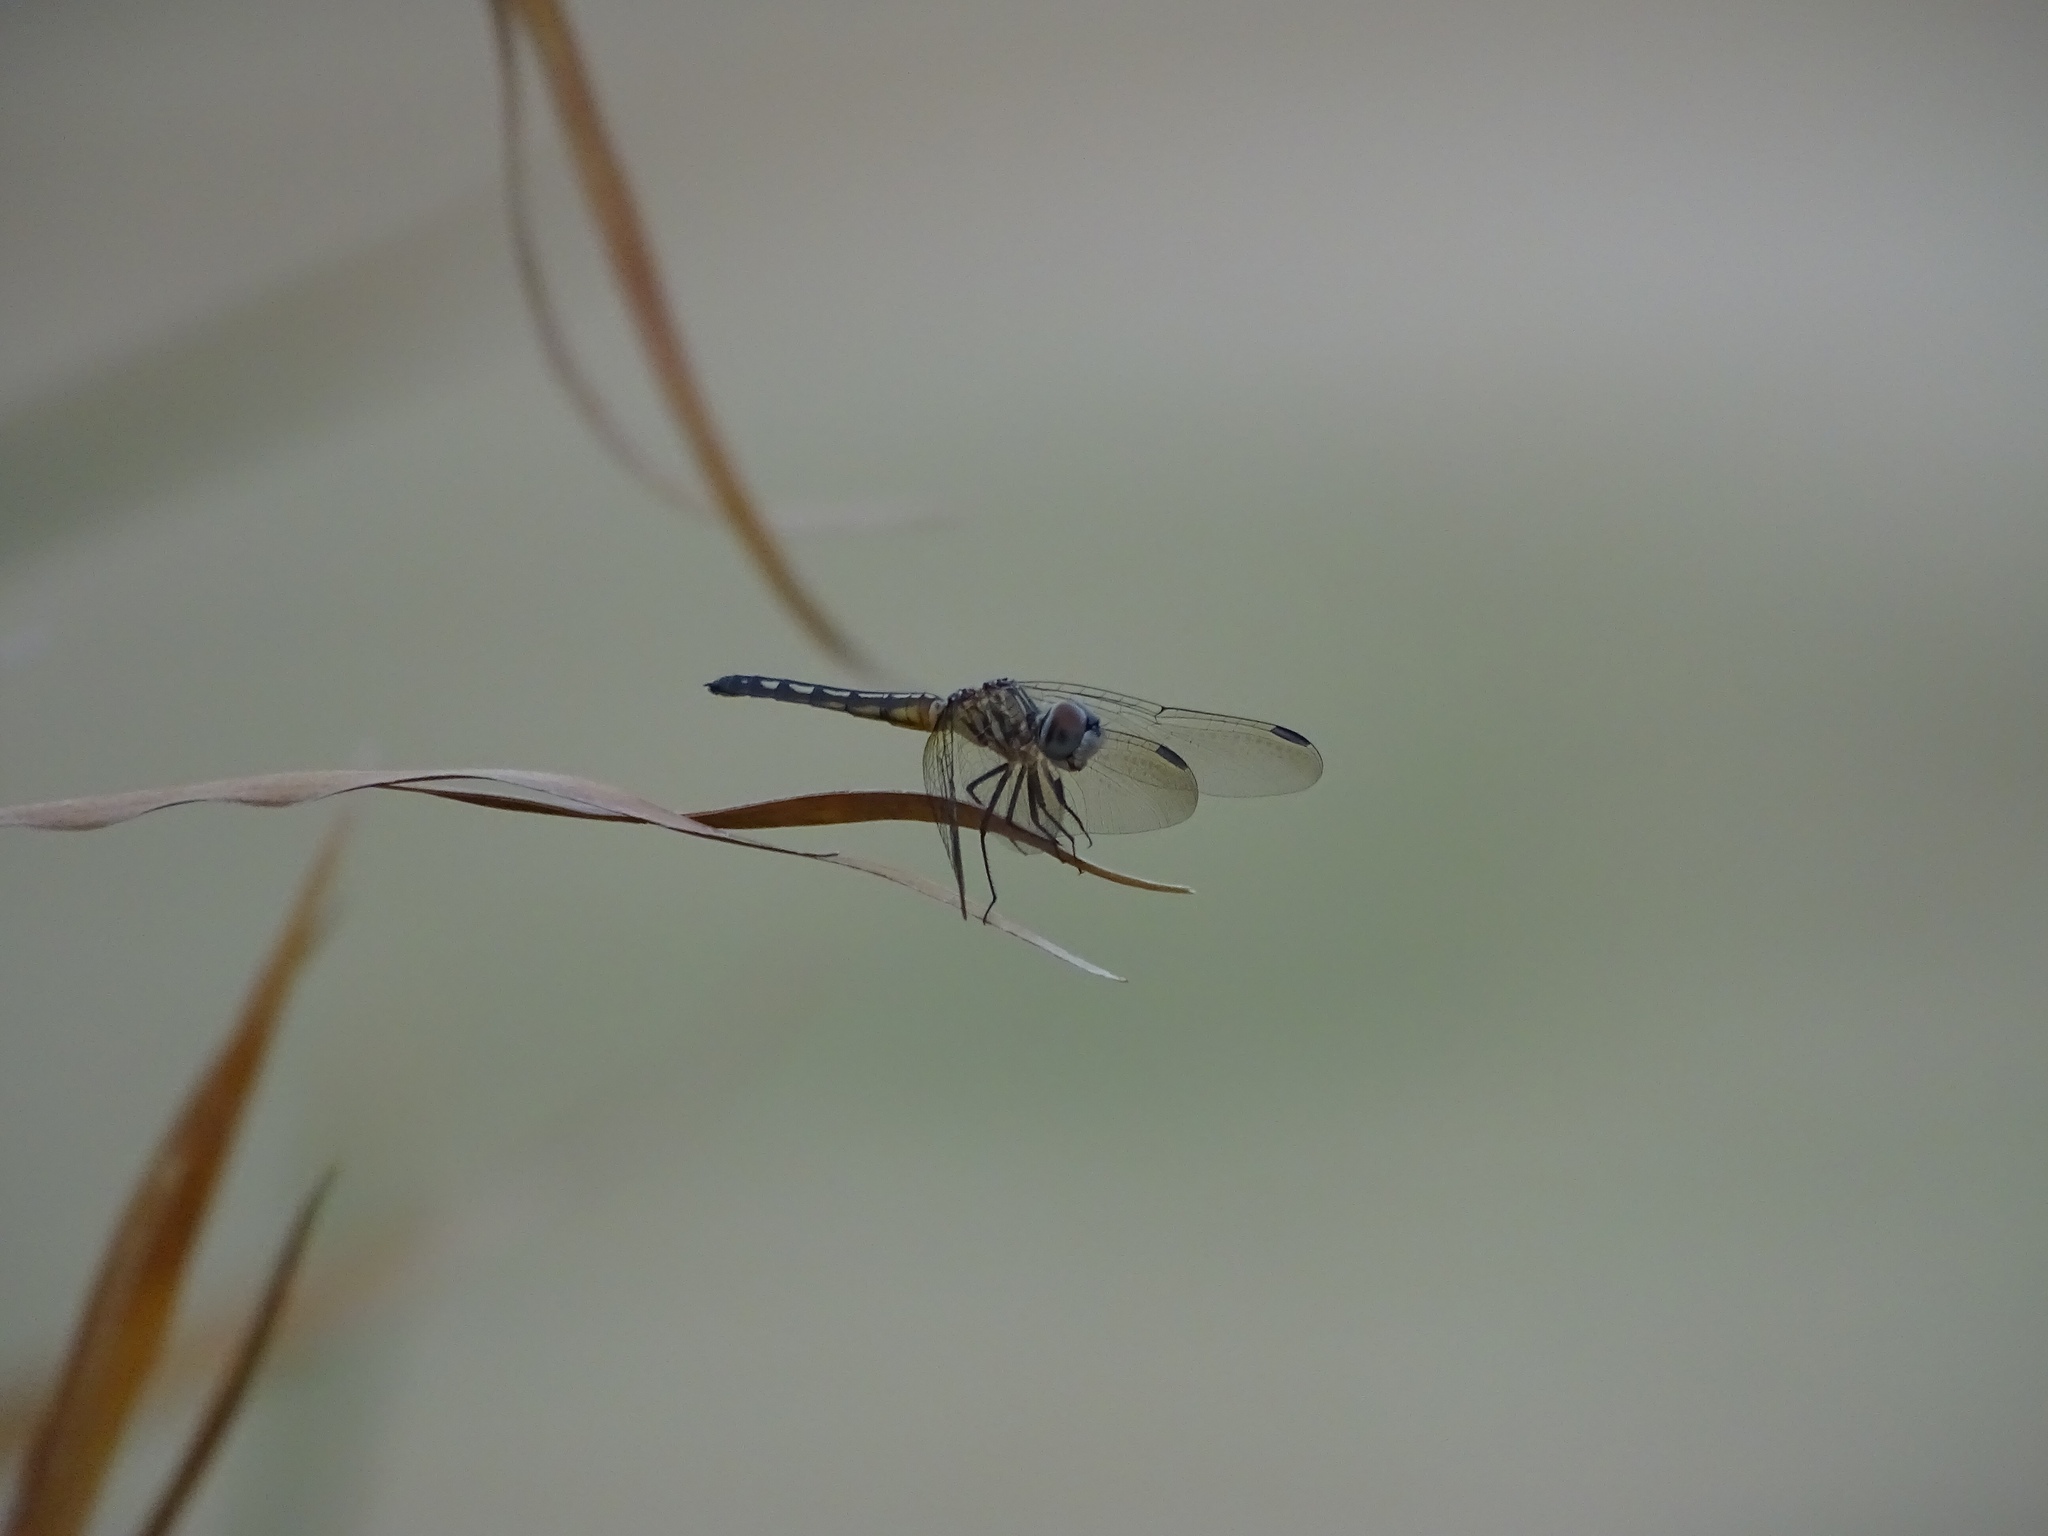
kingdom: Animalia
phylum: Arthropoda
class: Insecta
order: Odonata
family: Libellulidae
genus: Pachydiplax
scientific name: Pachydiplax longipennis
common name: Blue dasher
